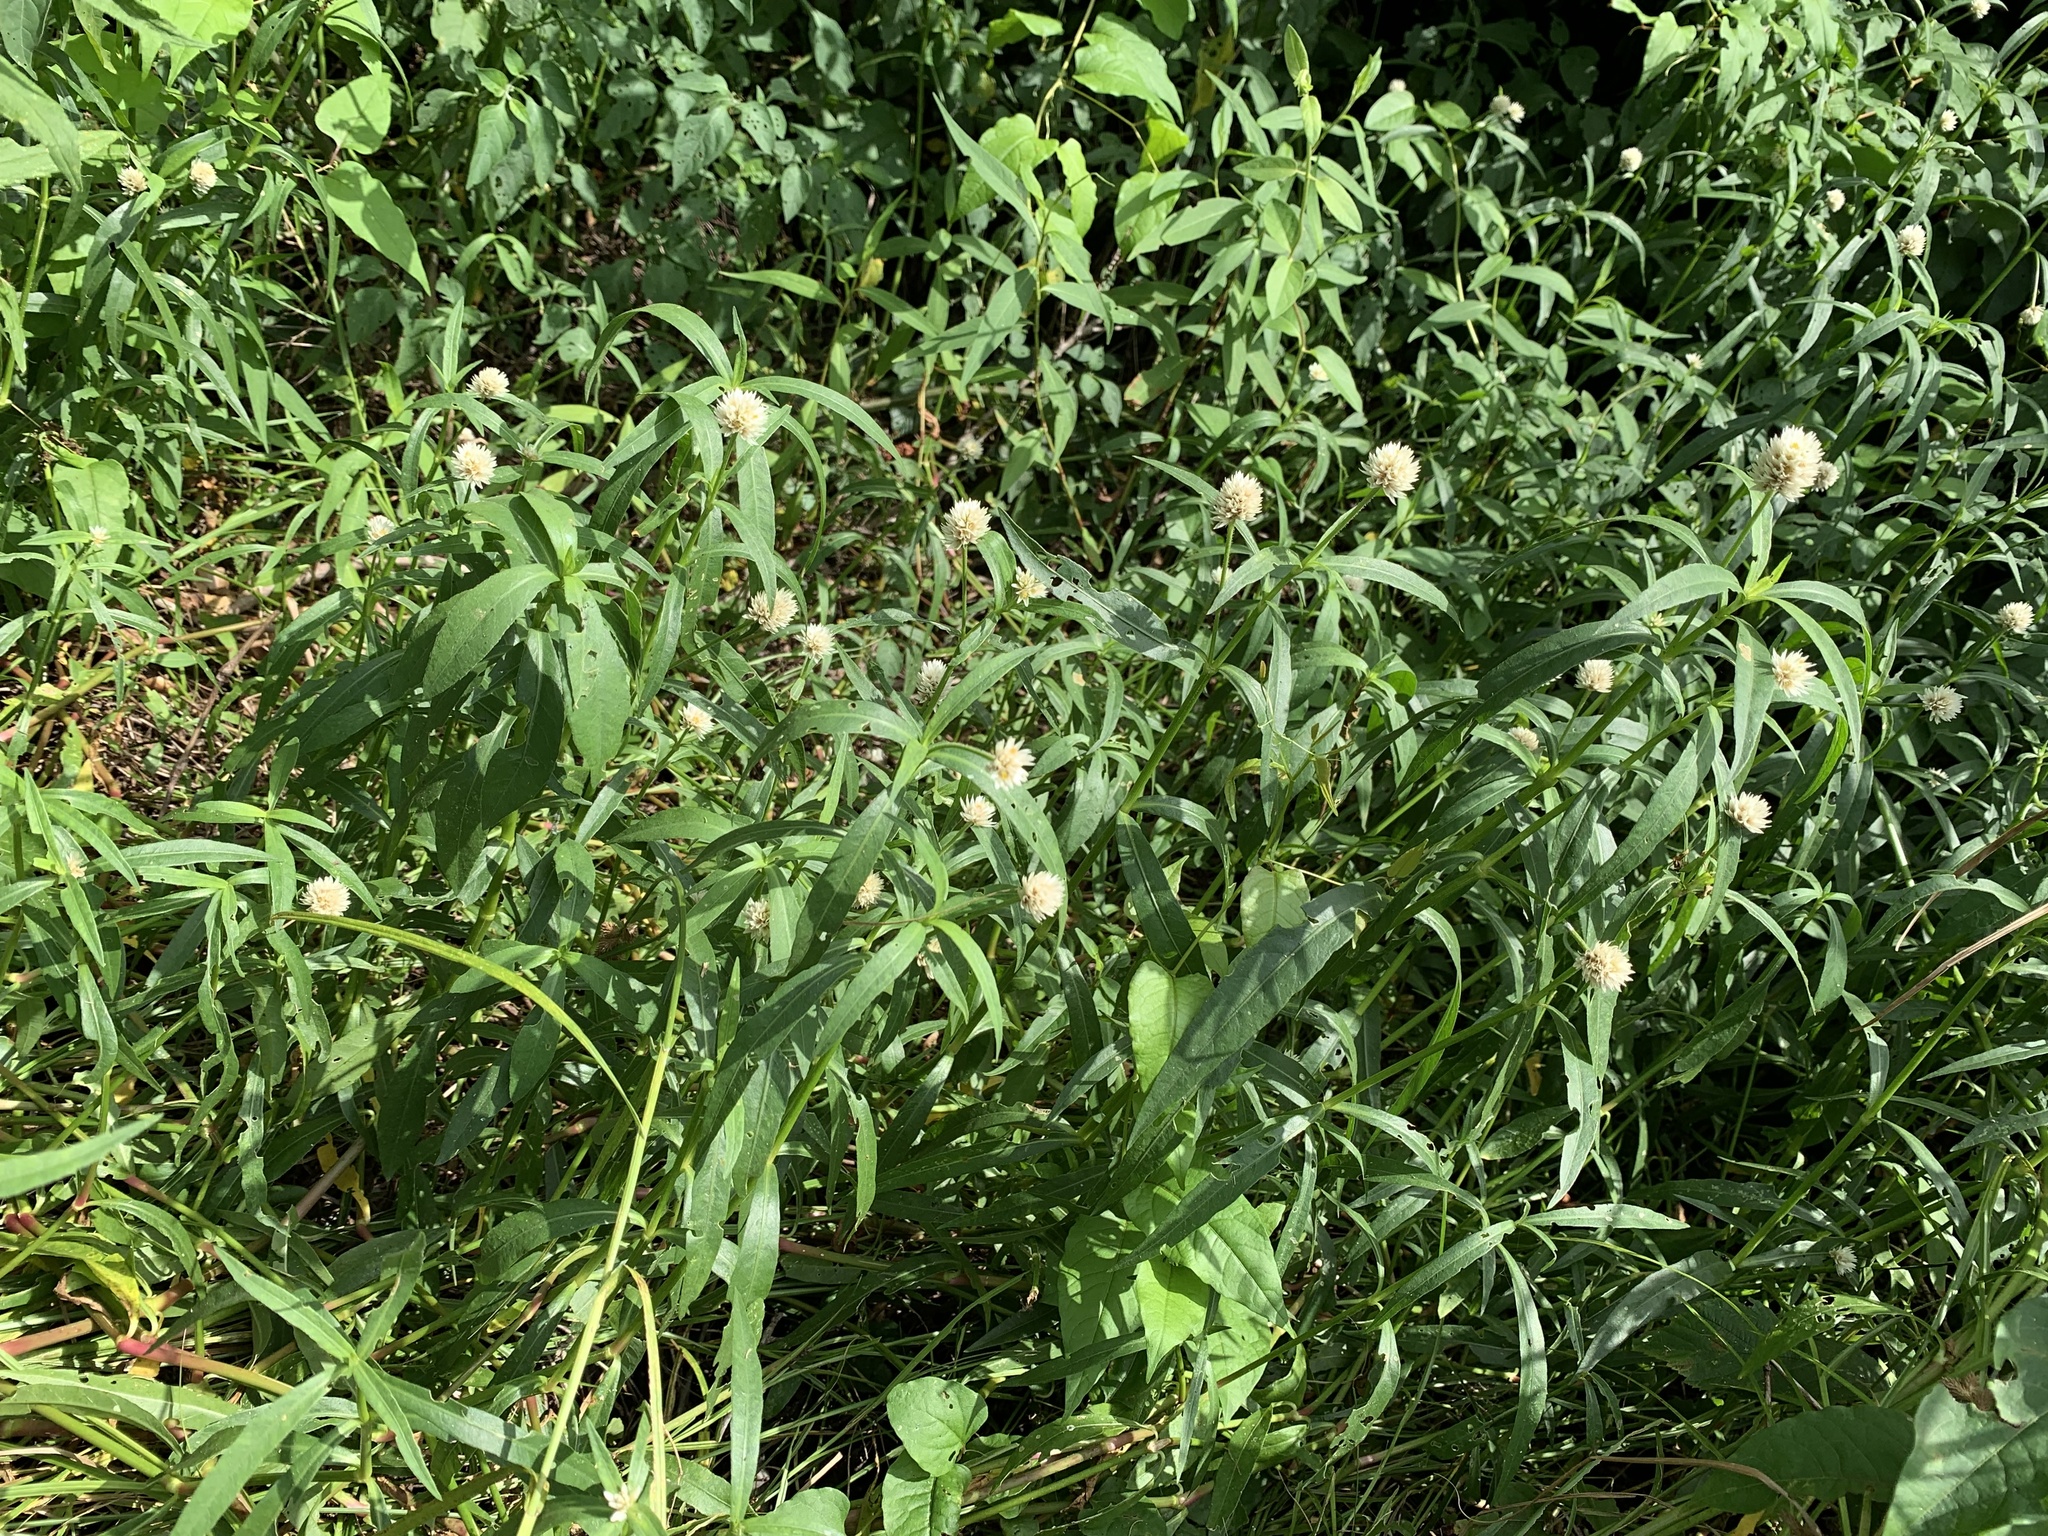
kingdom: Plantae
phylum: Tracheophyta
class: Magnoliopsida
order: Caryophyllales
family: Amaranthaceae
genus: Alternanthera
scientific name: Alternanthera philoxeroides
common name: Alligatorweed
